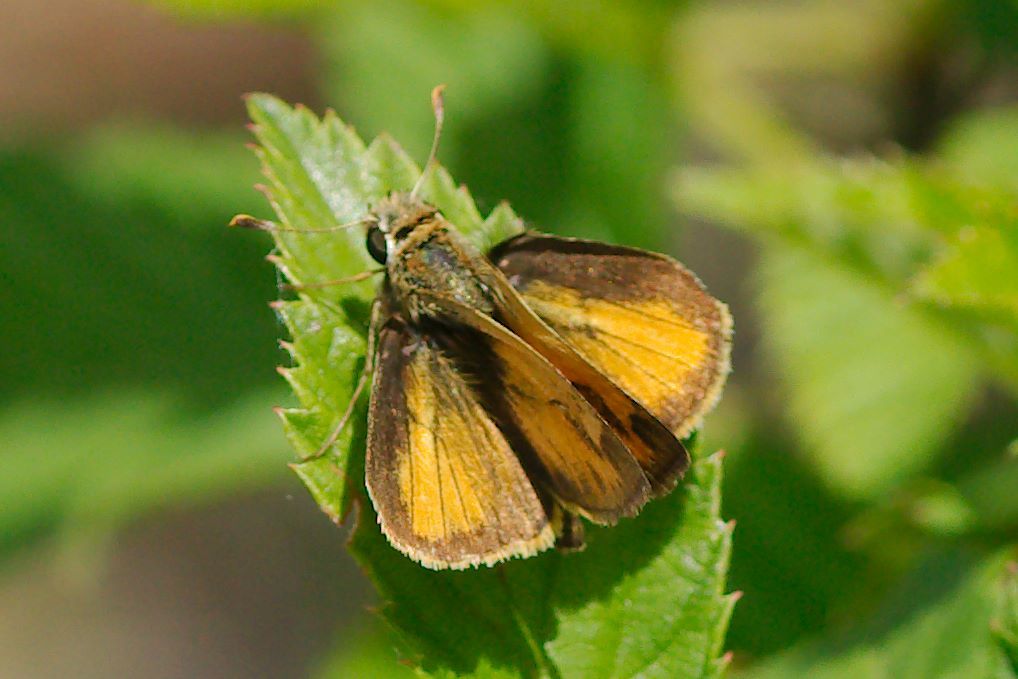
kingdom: Animalia
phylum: Arthropoda
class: Insecta
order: Lepidoptera
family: Hesperiidae
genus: Polites
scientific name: Polites vibex
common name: Whirlabout
